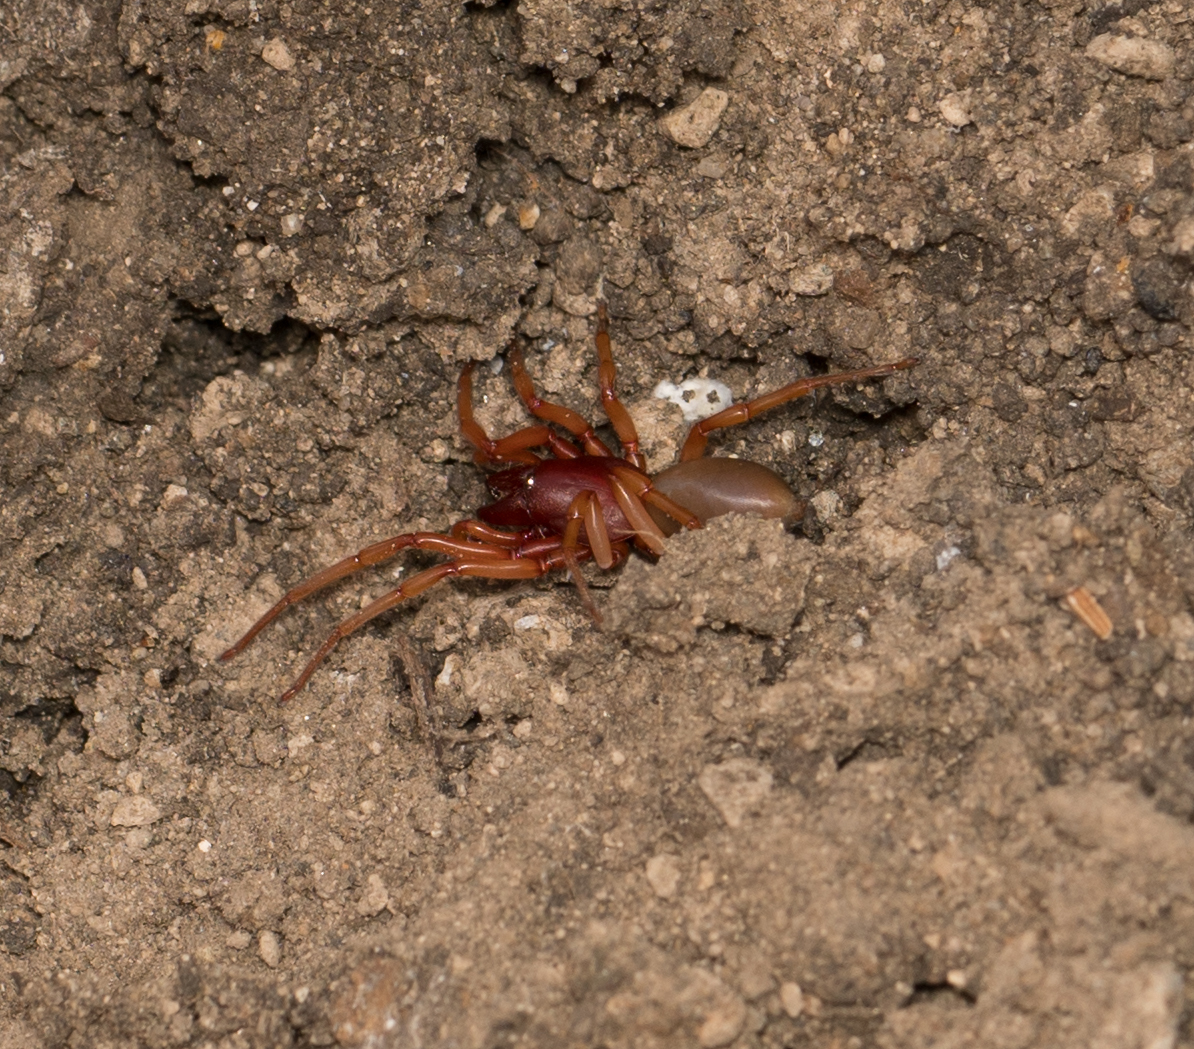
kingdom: Animalia
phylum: Arthropoda
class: Arachnida
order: Araneae
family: Dysderidae
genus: Dysdera
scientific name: Dysdera crocata
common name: Woodlouse spider
